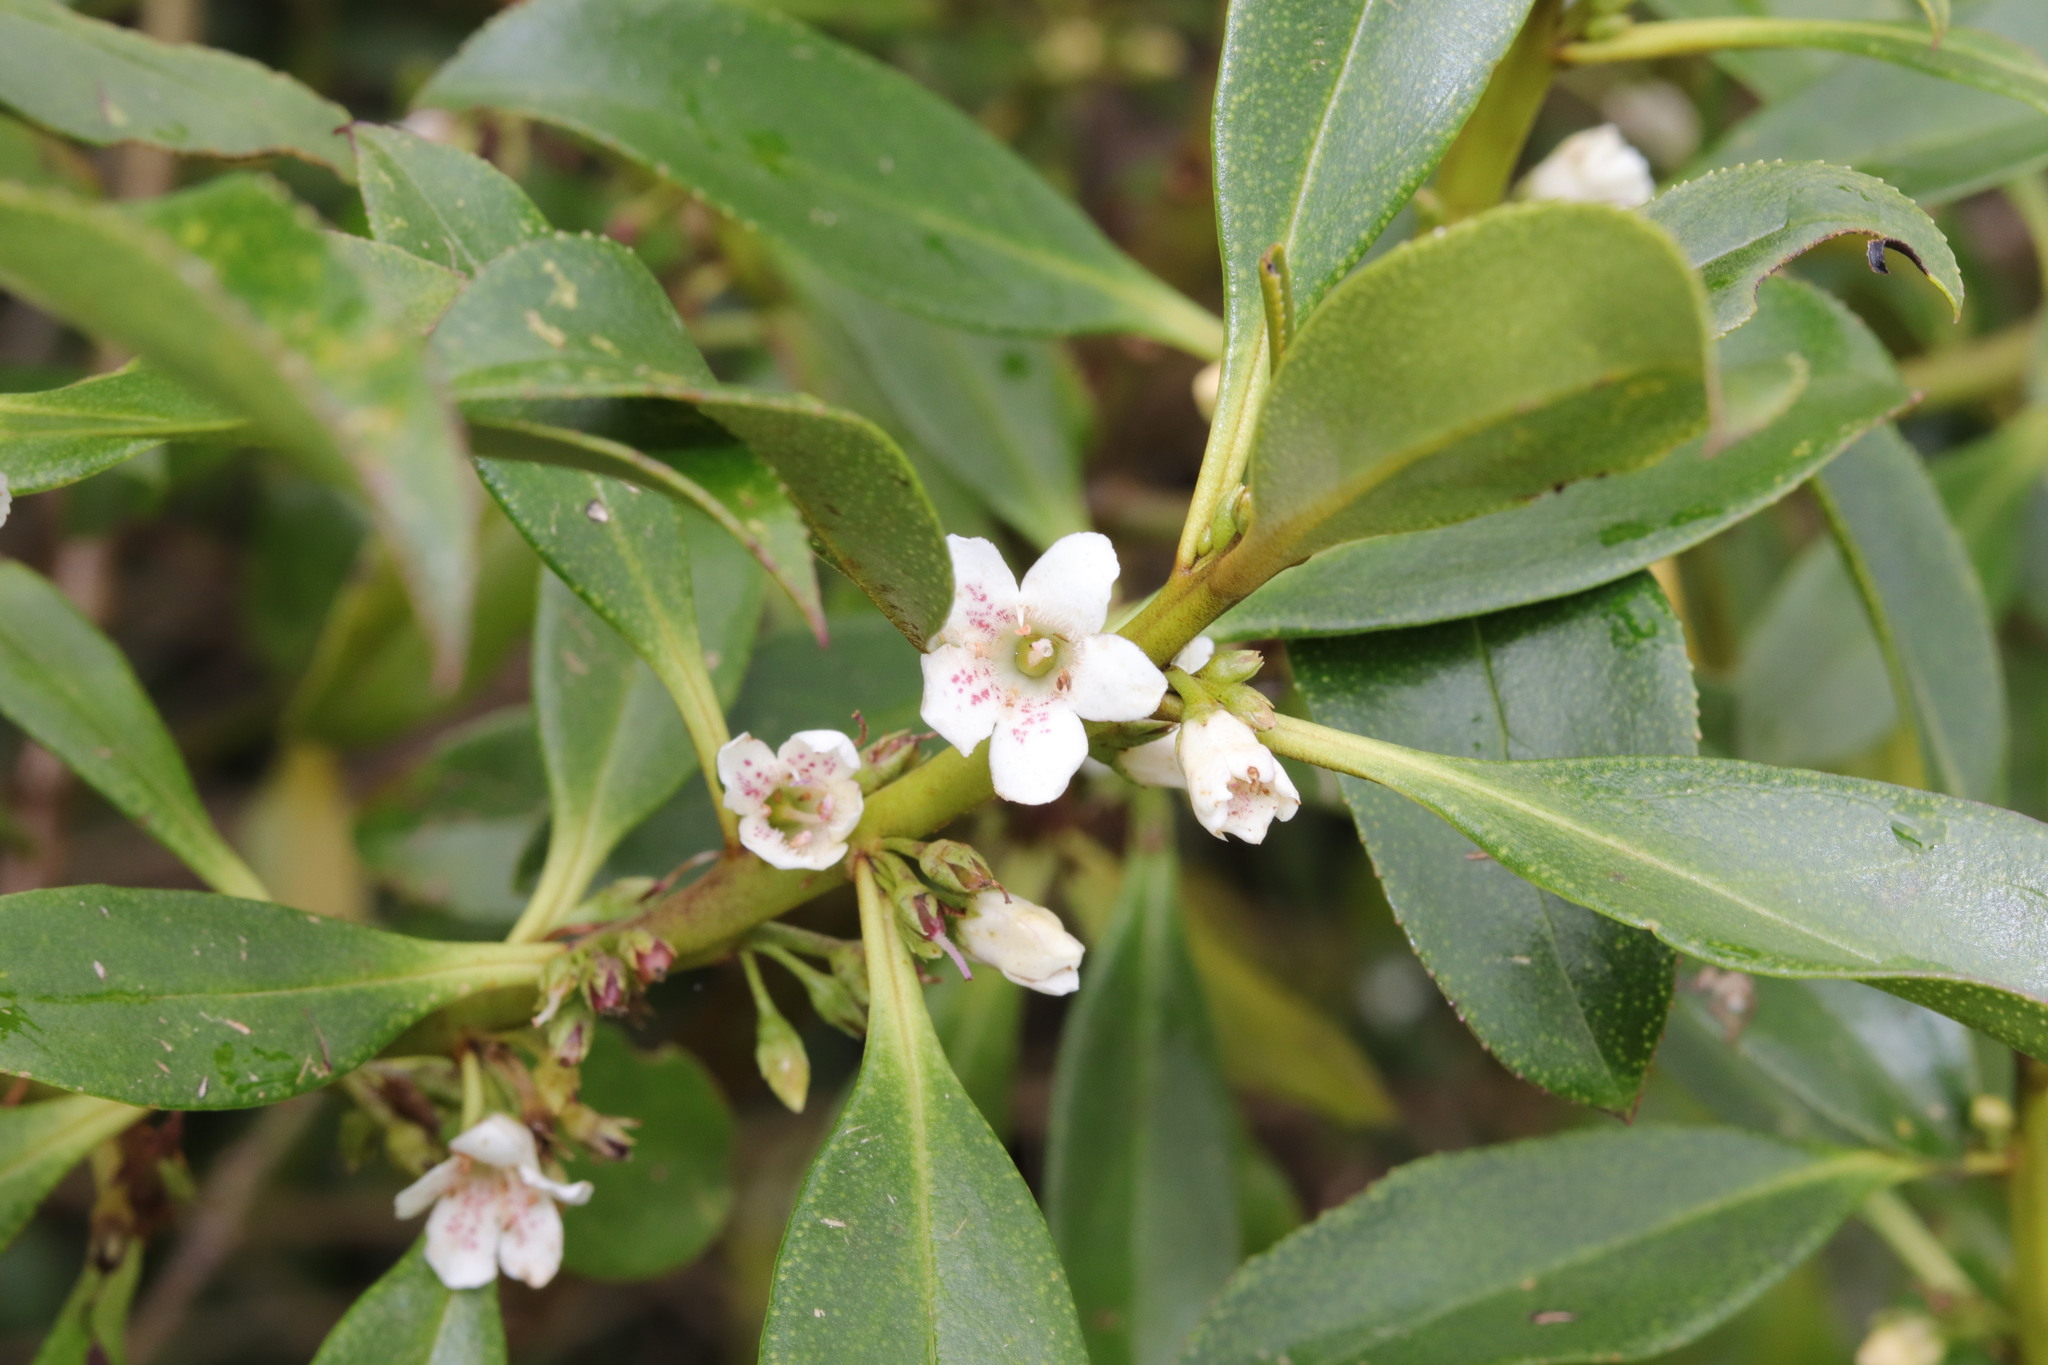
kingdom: Plantae
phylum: Tracheophyta
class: Magnoliopsida
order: Lamiales
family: Scrophulariaceae
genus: Myoporum
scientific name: Myoporum laetum
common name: Ngaio tree
